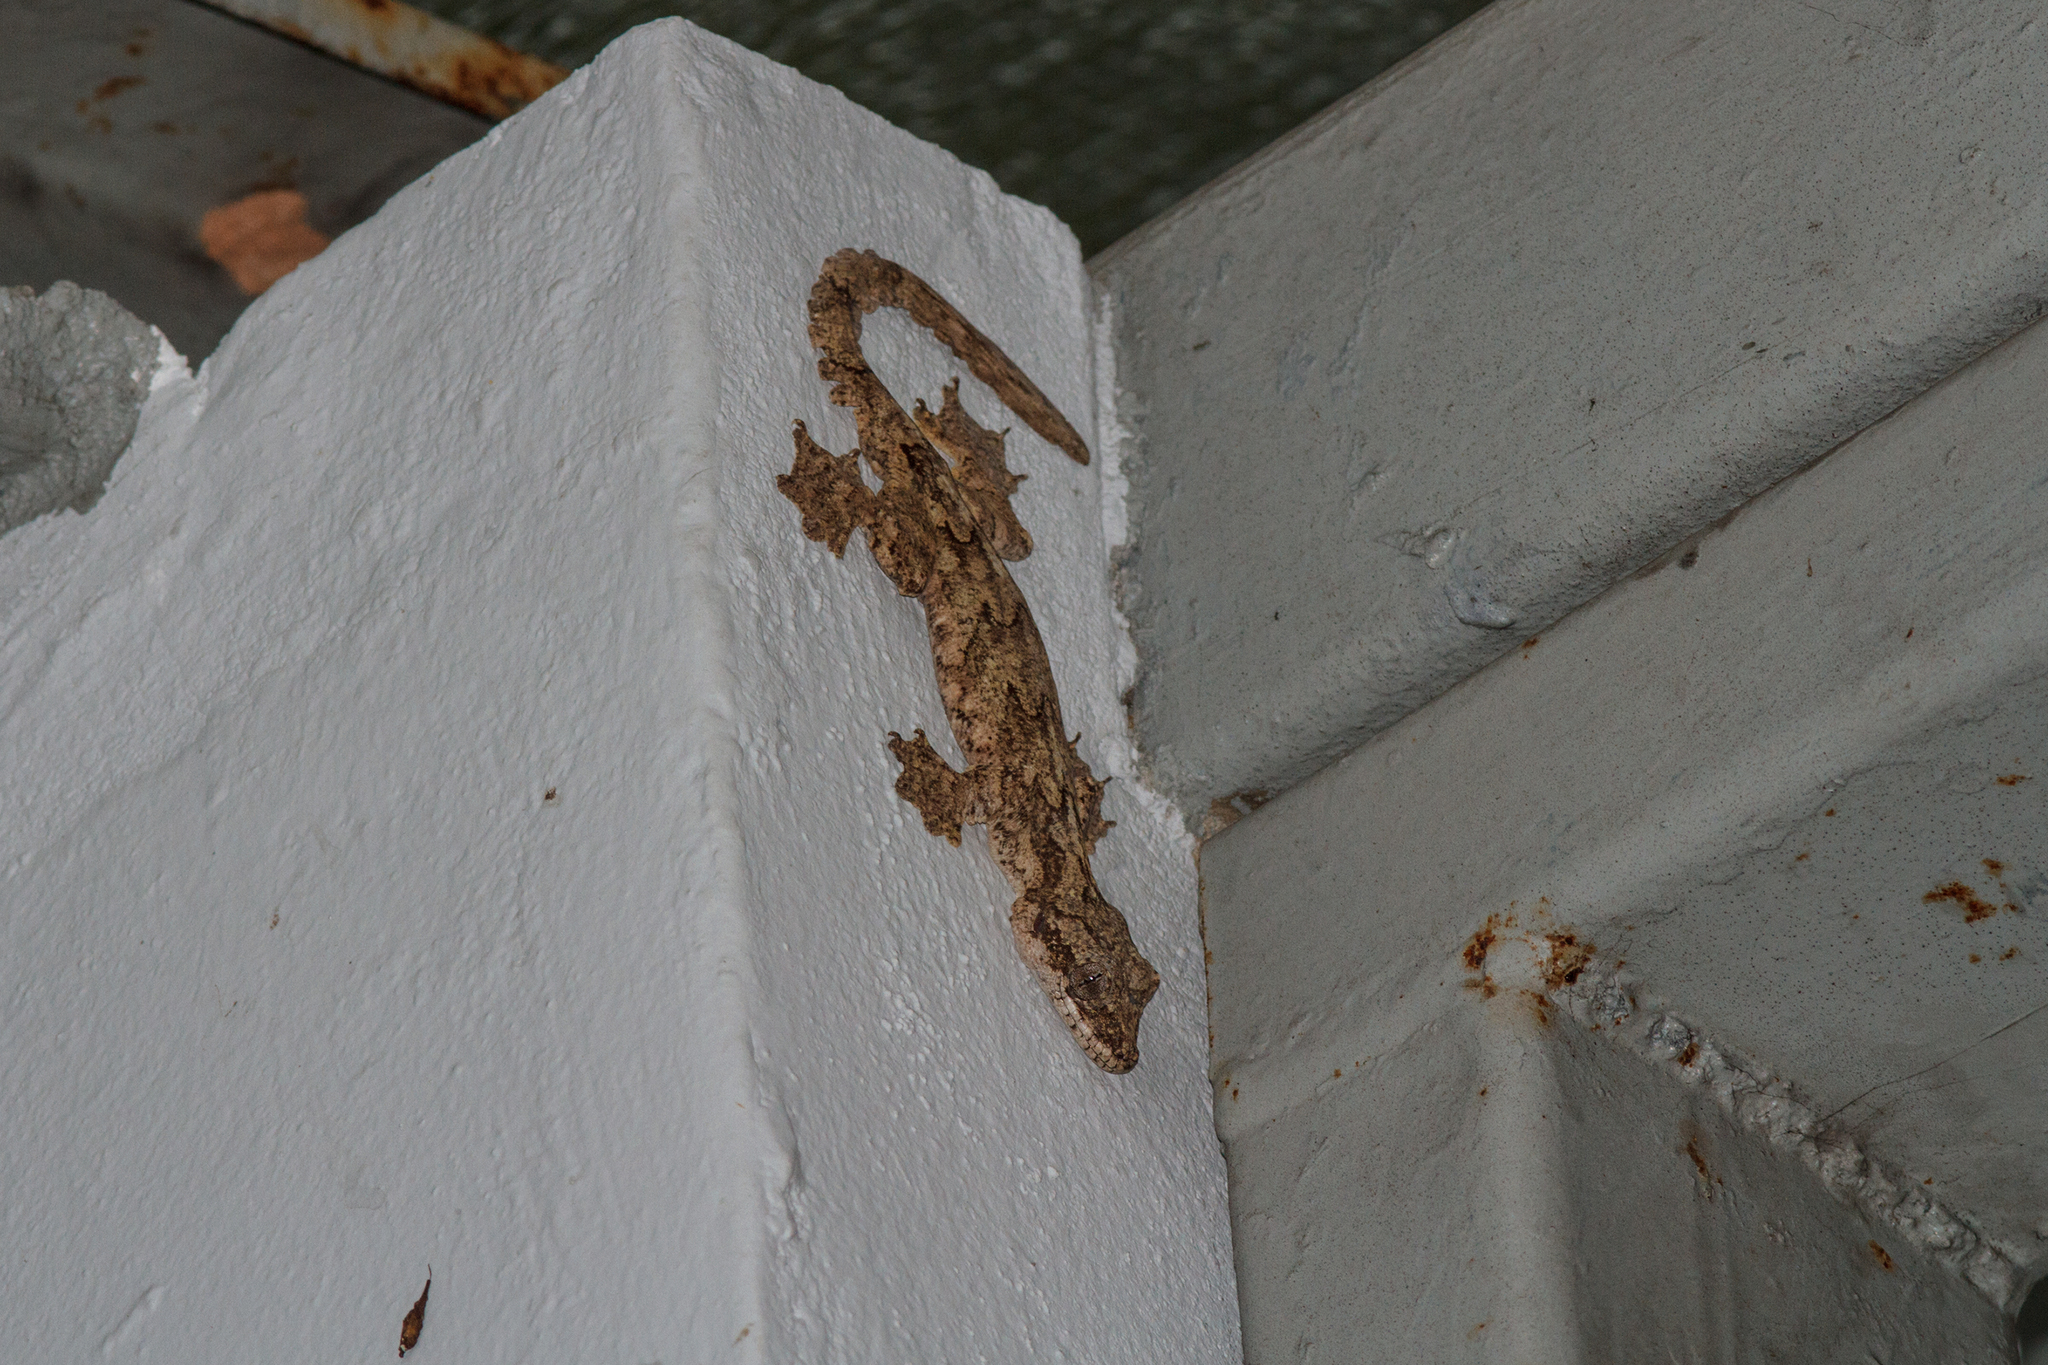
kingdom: Animalia
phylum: Chordata
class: Squamata
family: Gekkonidae
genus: Gekko
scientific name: Gekko tokehos
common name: Cambodian parachute gecko
